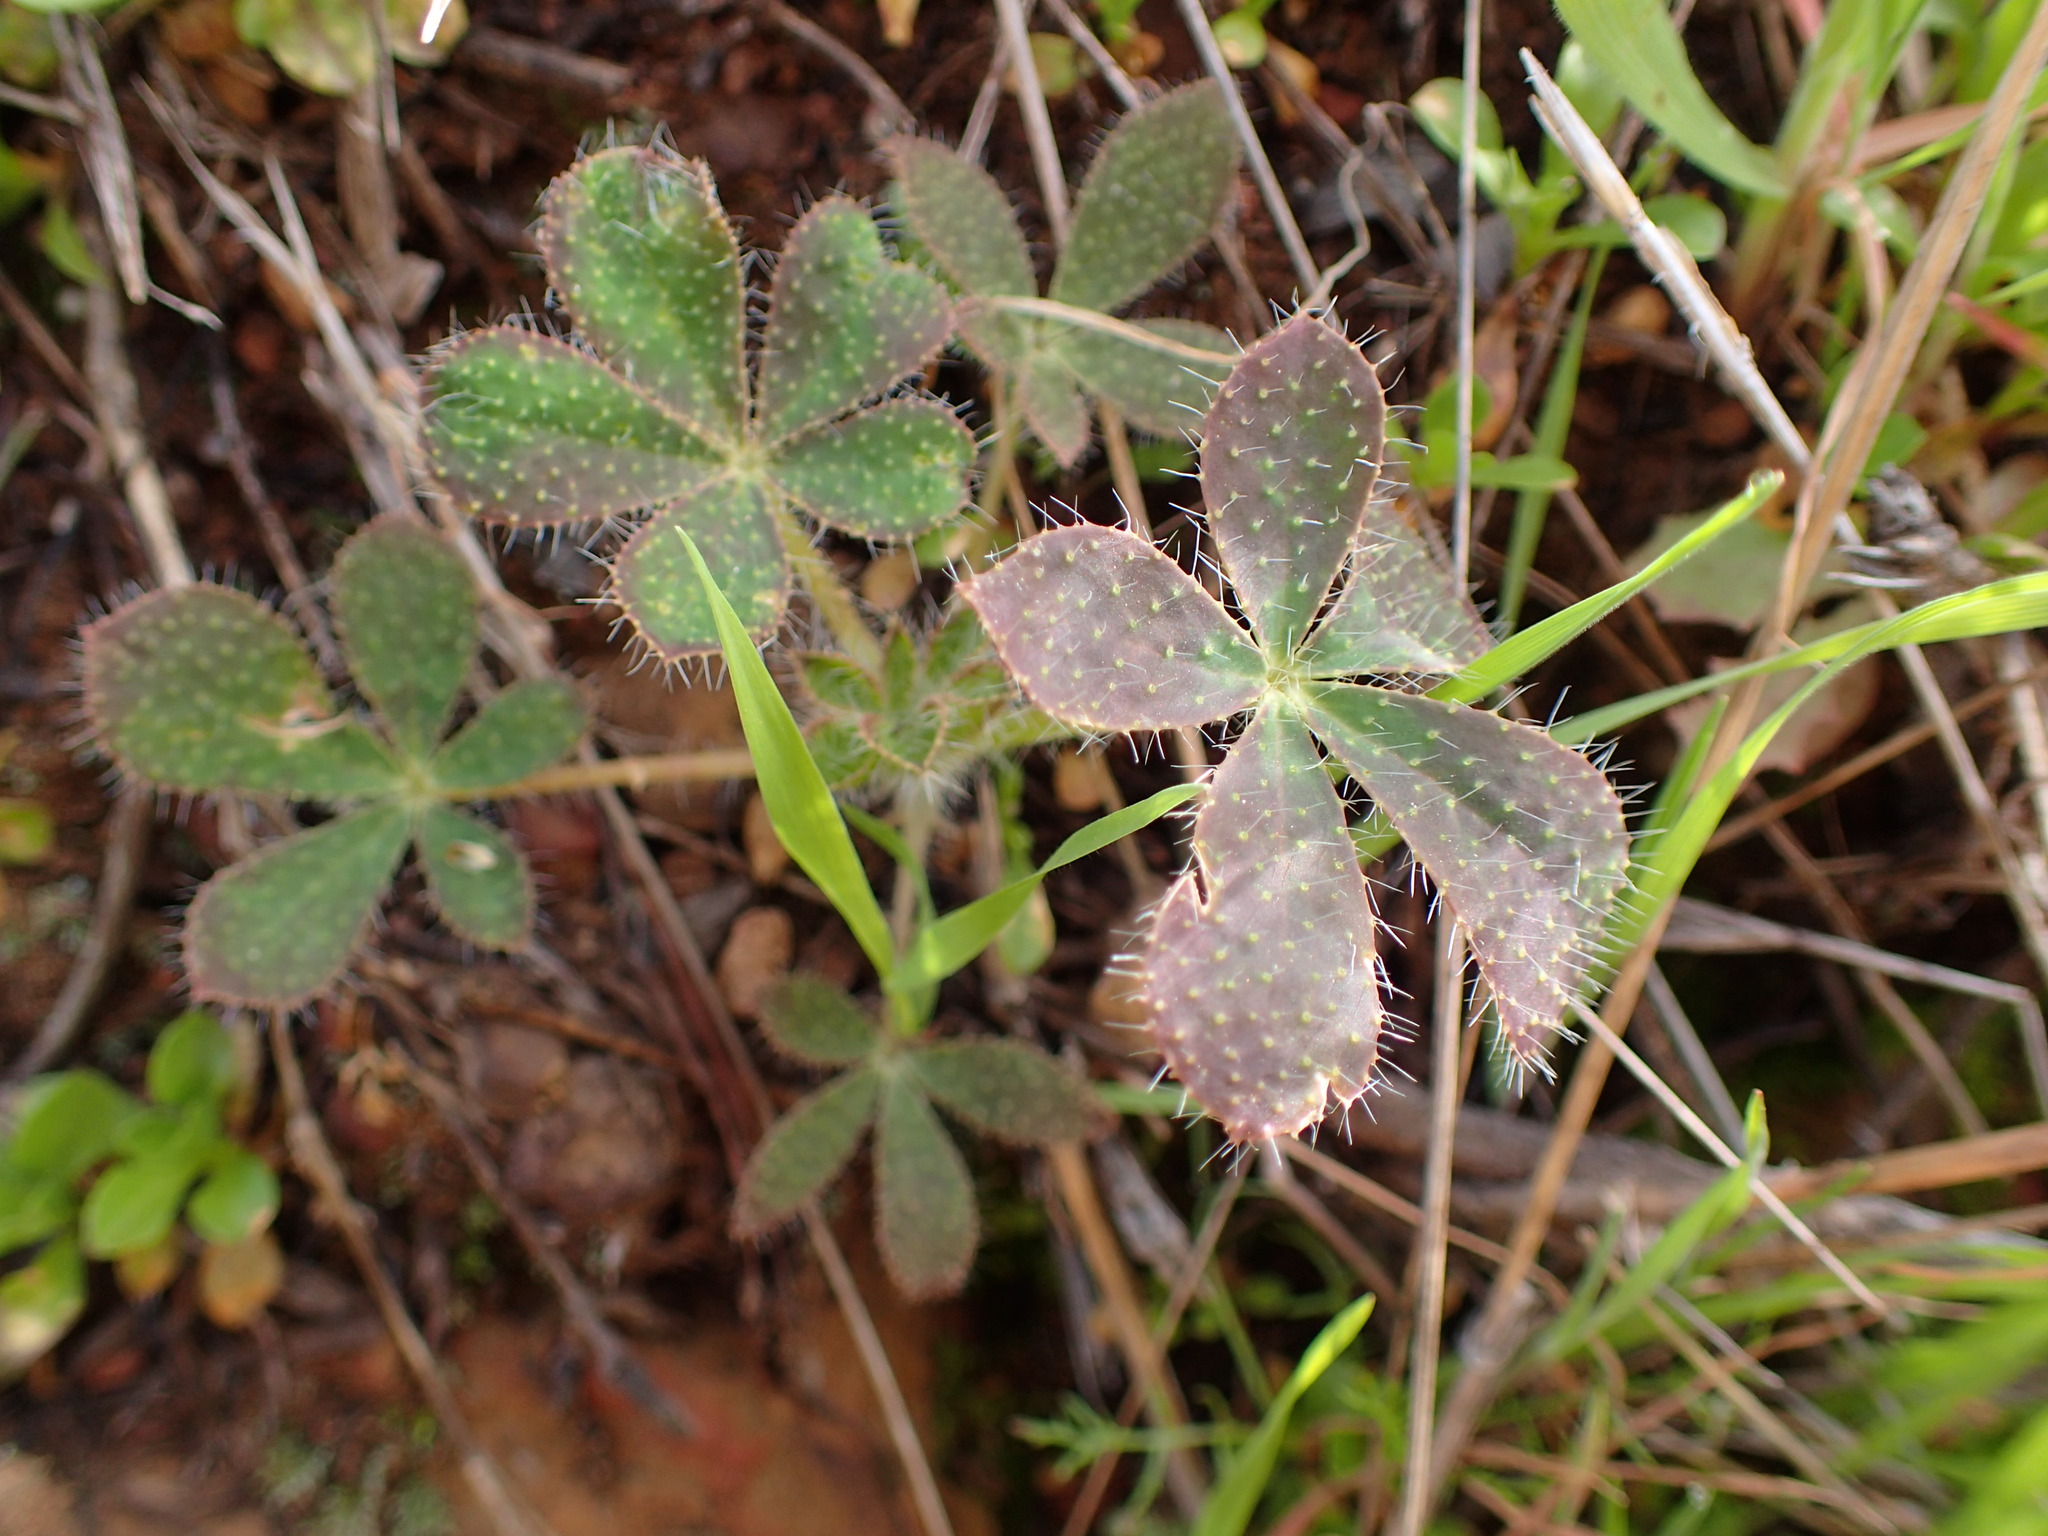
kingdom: Plantae
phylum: Tracheophyta
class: Magnoliopsida
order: Fabales
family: Fabaceae
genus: Lupinus
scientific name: Lupinus hirsutissimus
